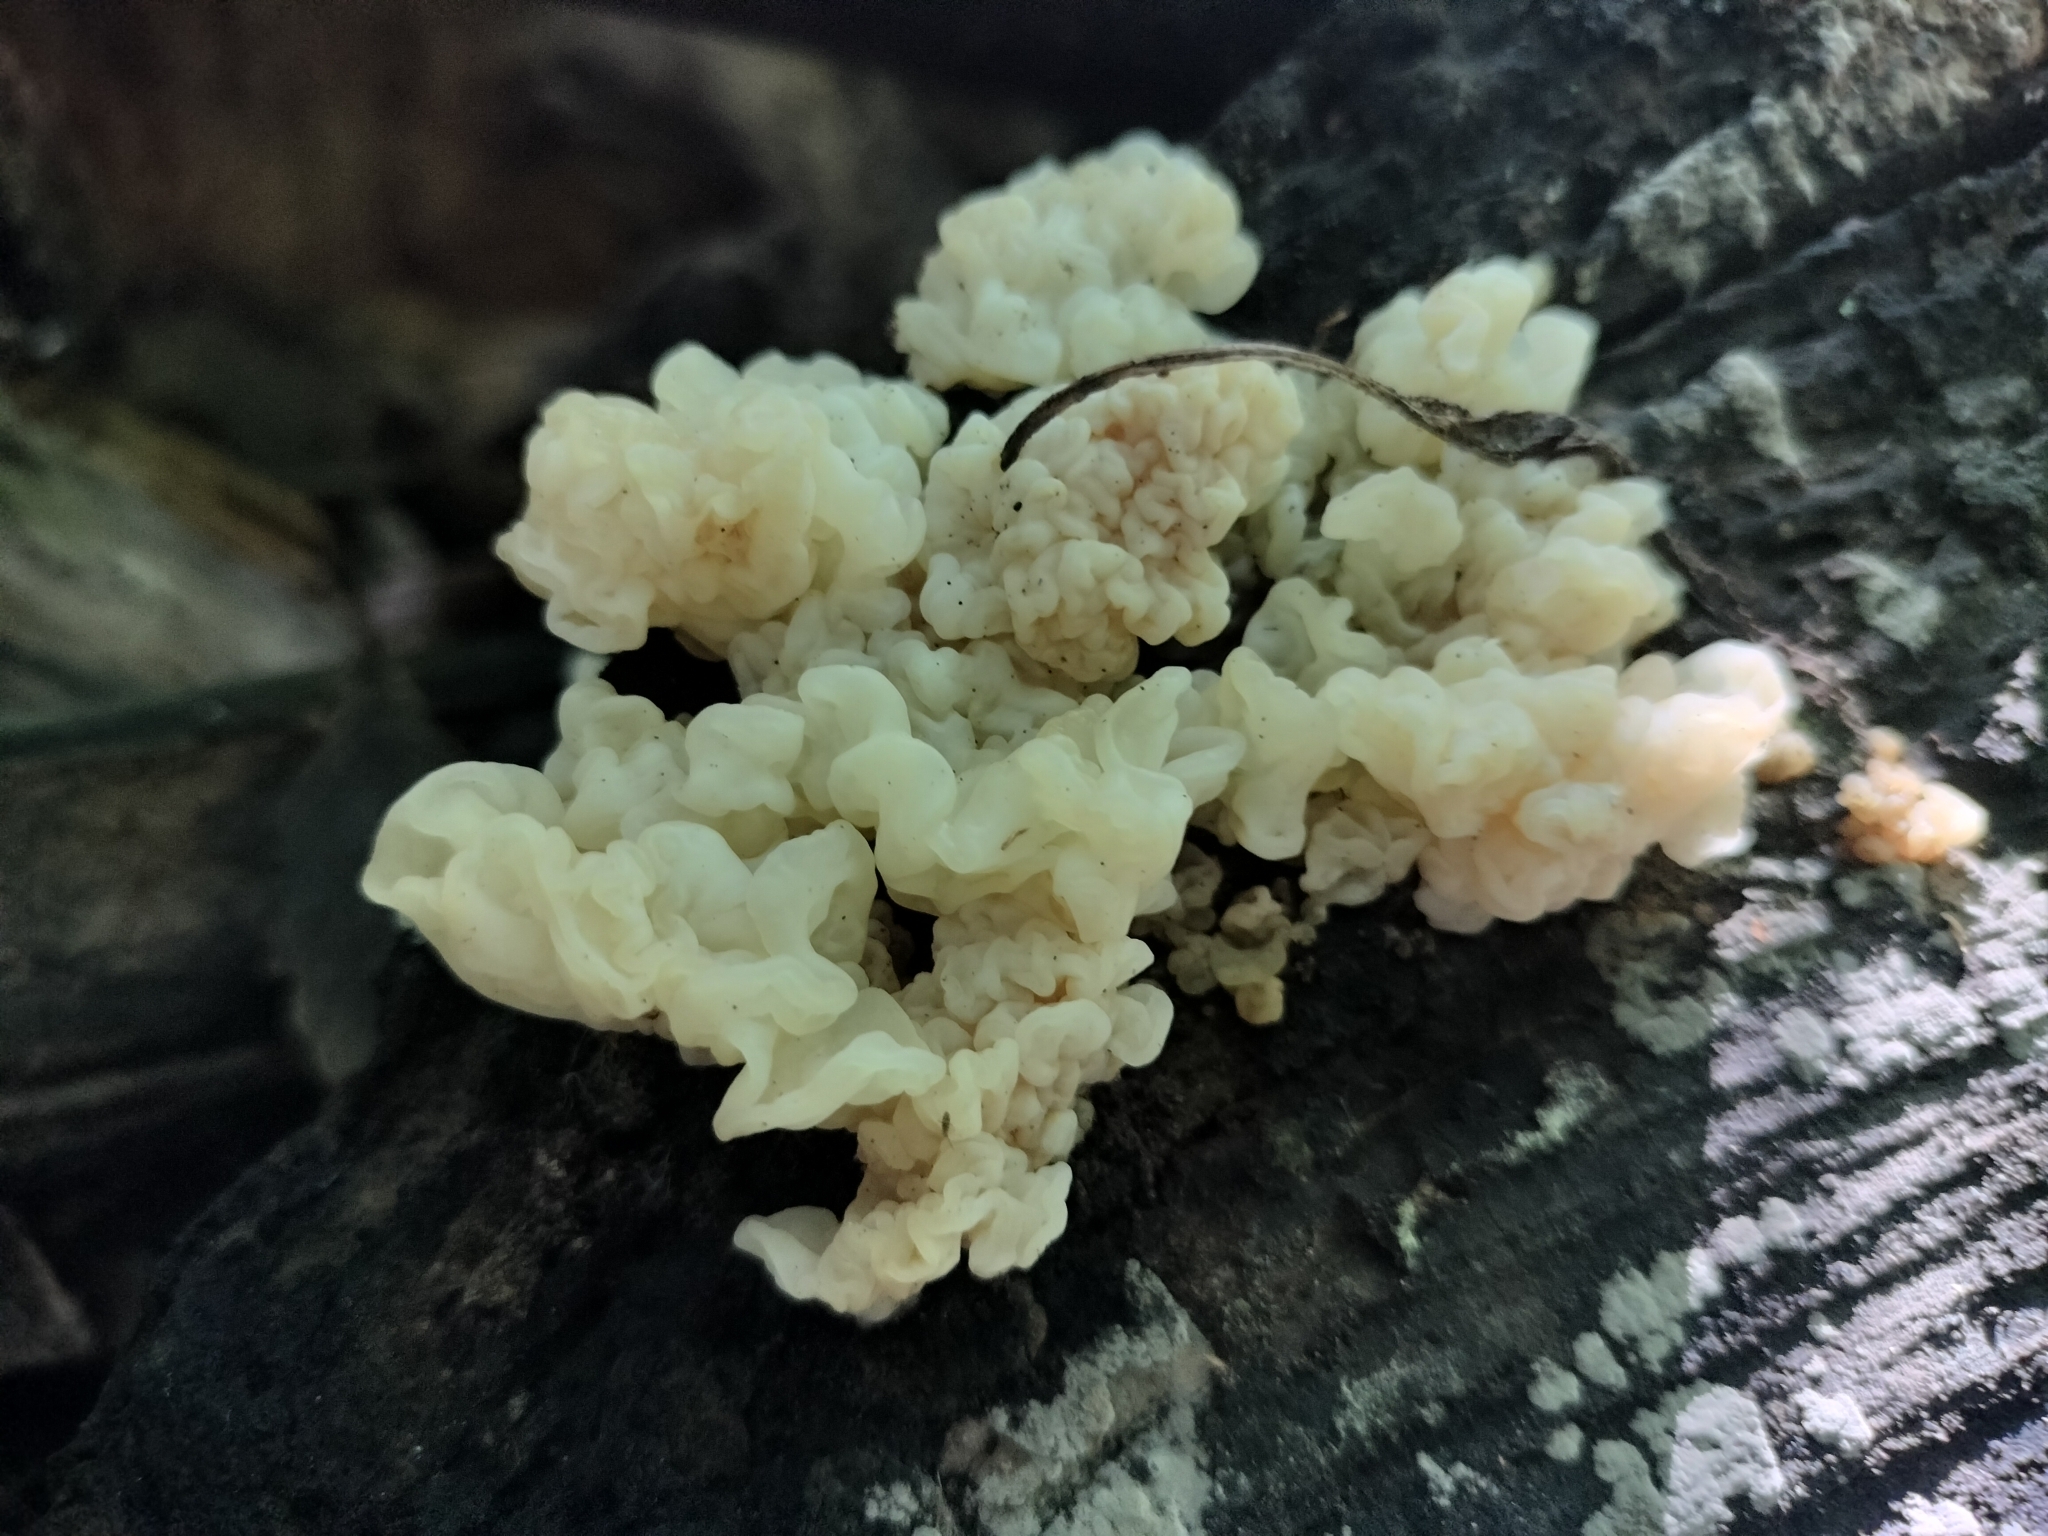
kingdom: Fungi
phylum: Basidiomycota
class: Agaricomycetes
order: Auriculariales
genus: Ductifera
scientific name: Ductifera pululahuana
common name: White jelly fungus
